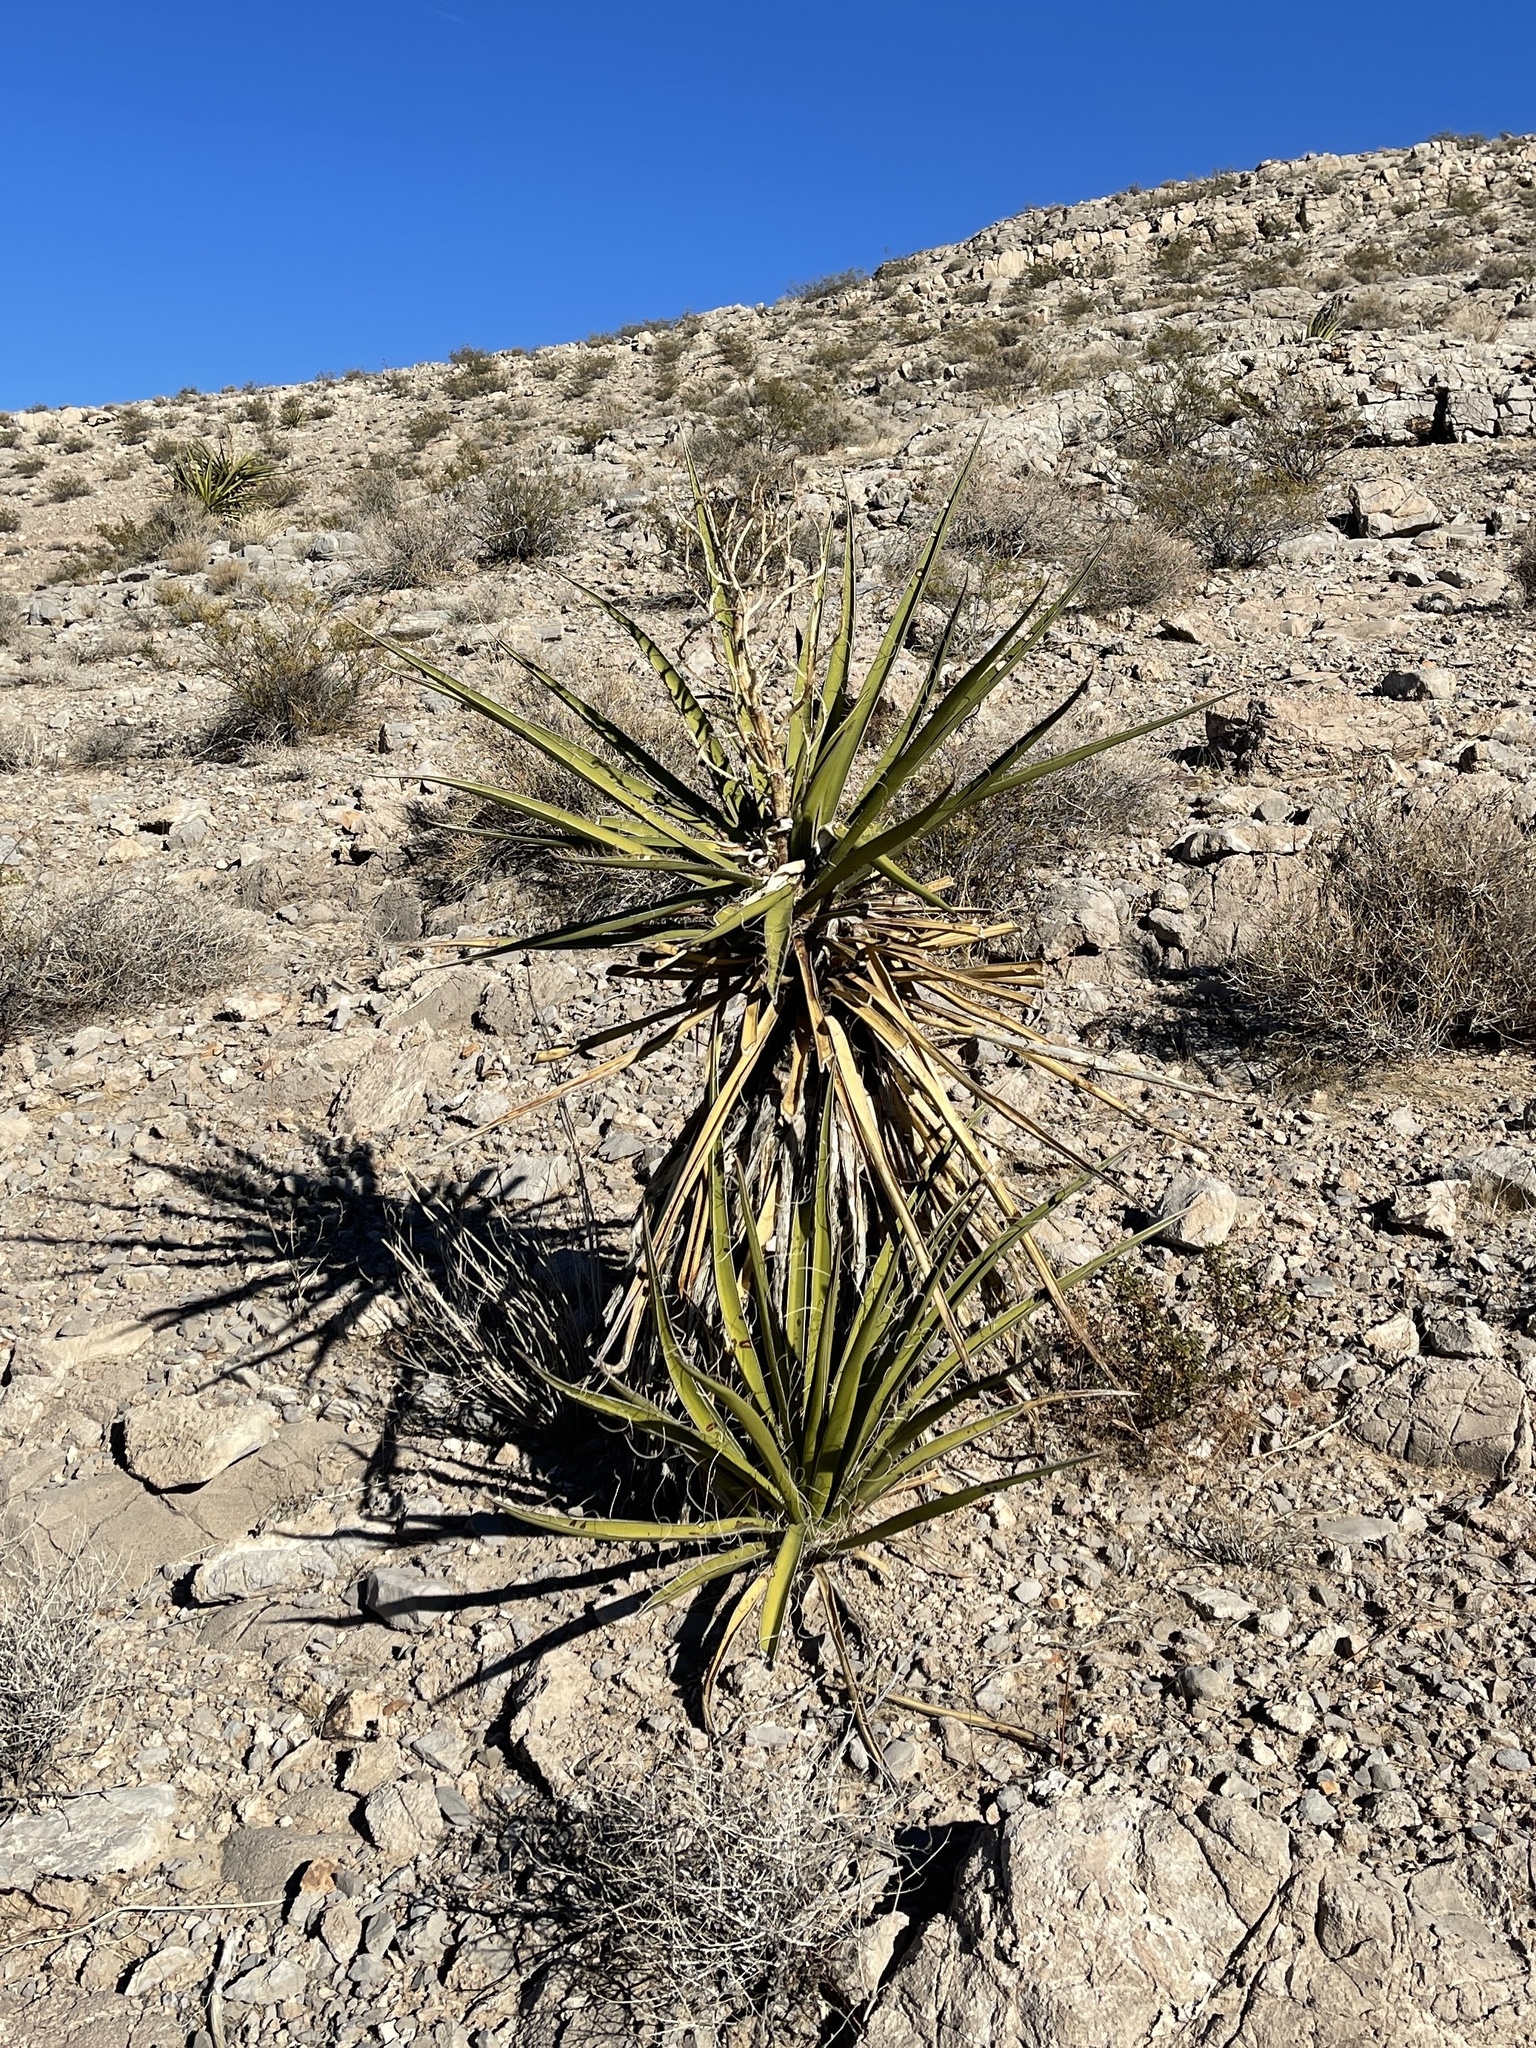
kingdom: Plantae
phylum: Tracheophyta
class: Liliopsida
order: Asparagales
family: Asparagaceae
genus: Yucca
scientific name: Yucca schidigera
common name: Mojave yucca
